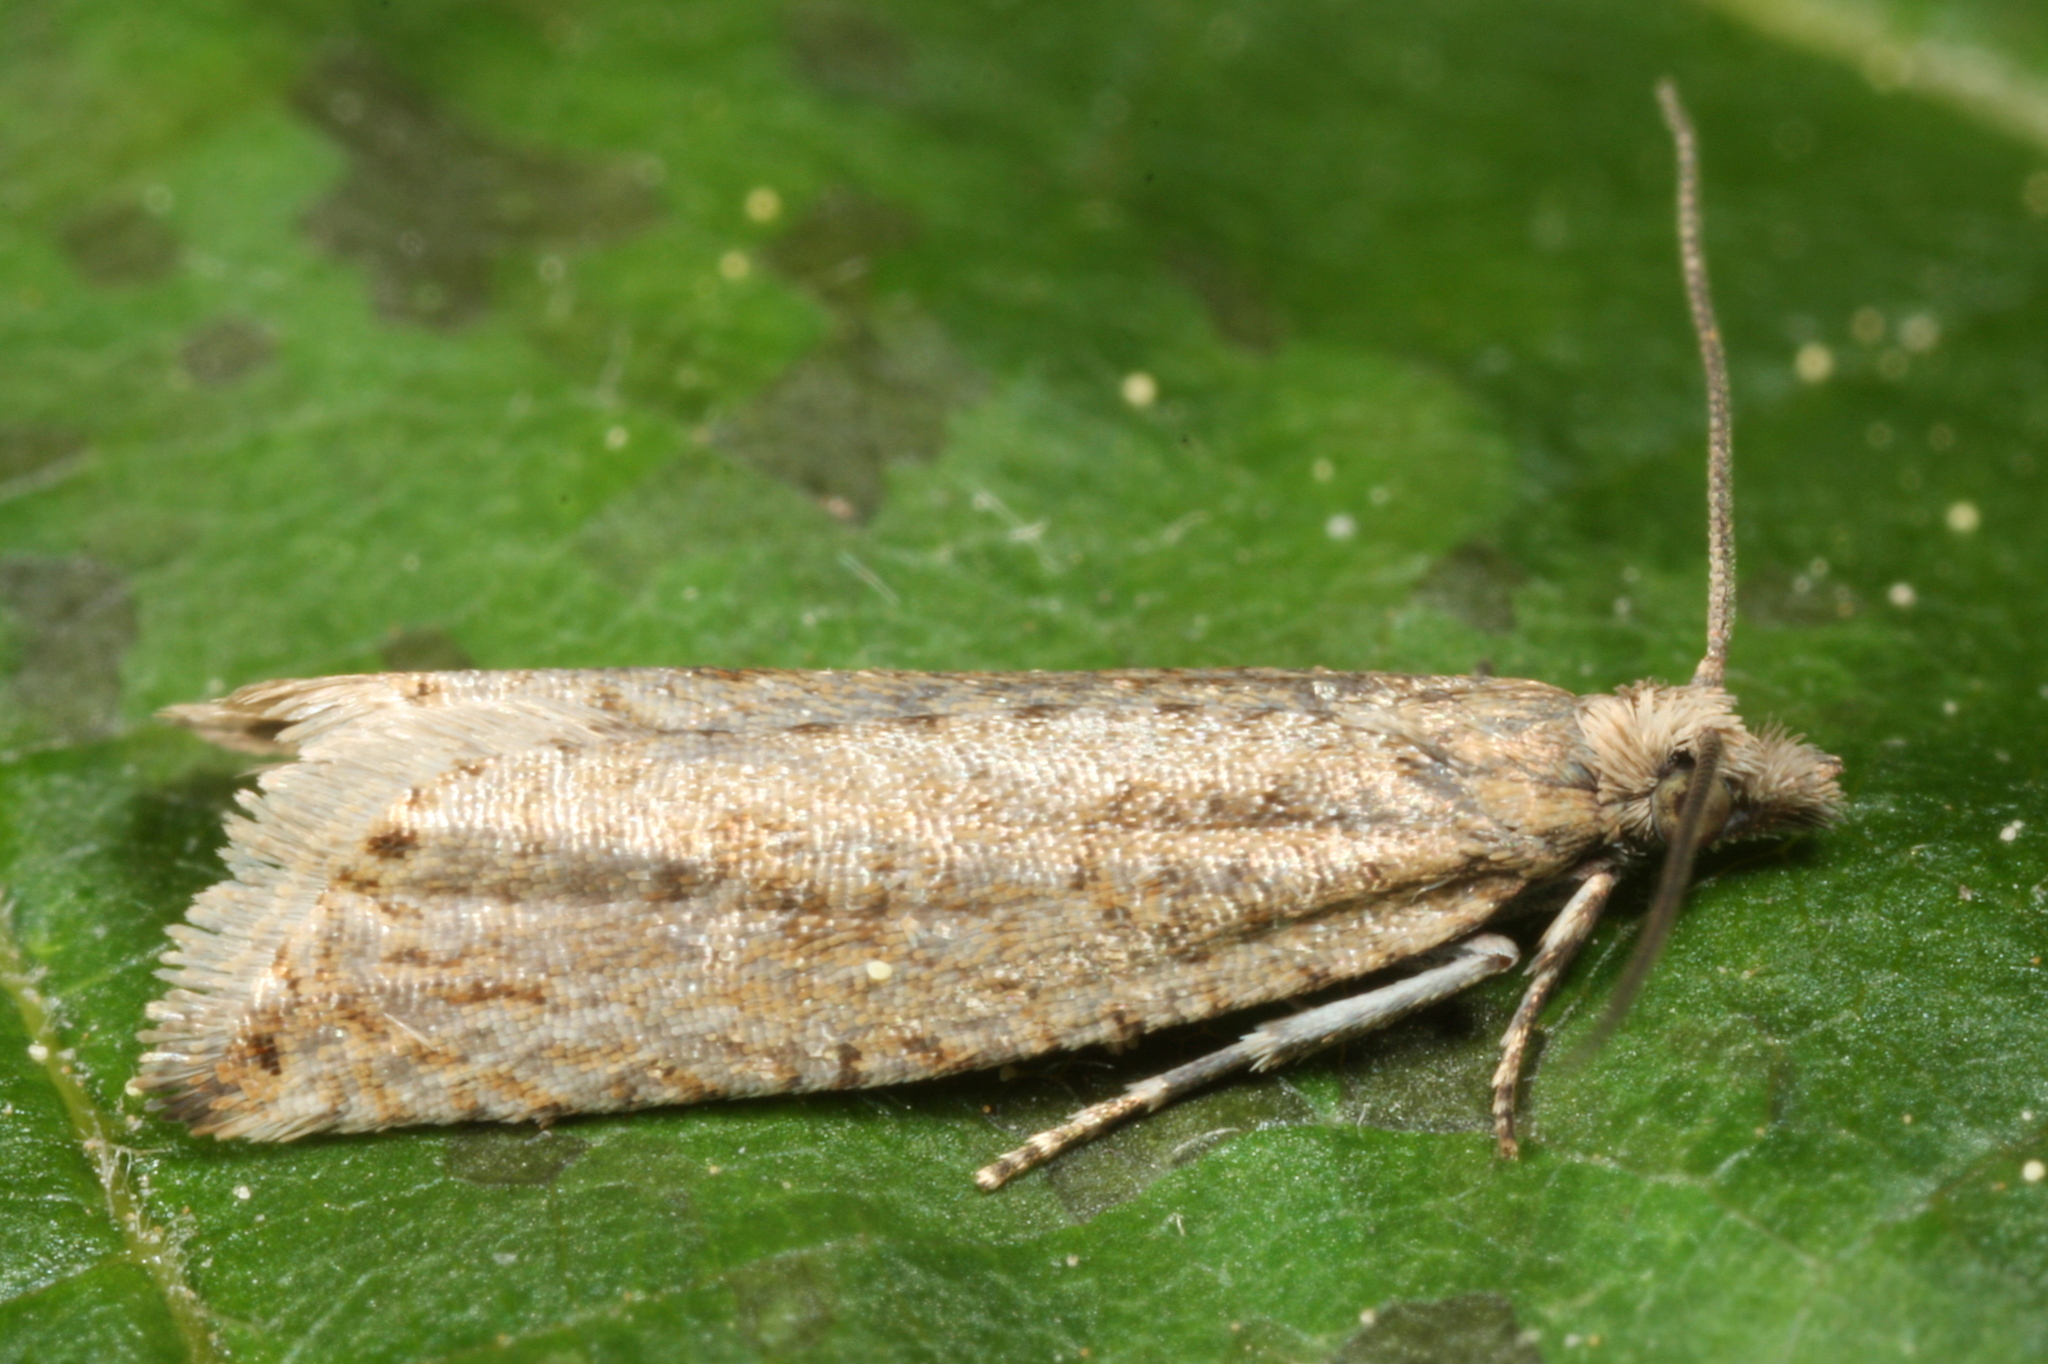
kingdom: Animalia
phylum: Arthropoda
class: Insecta
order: Lepidoptera
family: Tortricidae
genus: Bactra
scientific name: Bactra lancealana
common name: Rush marble
